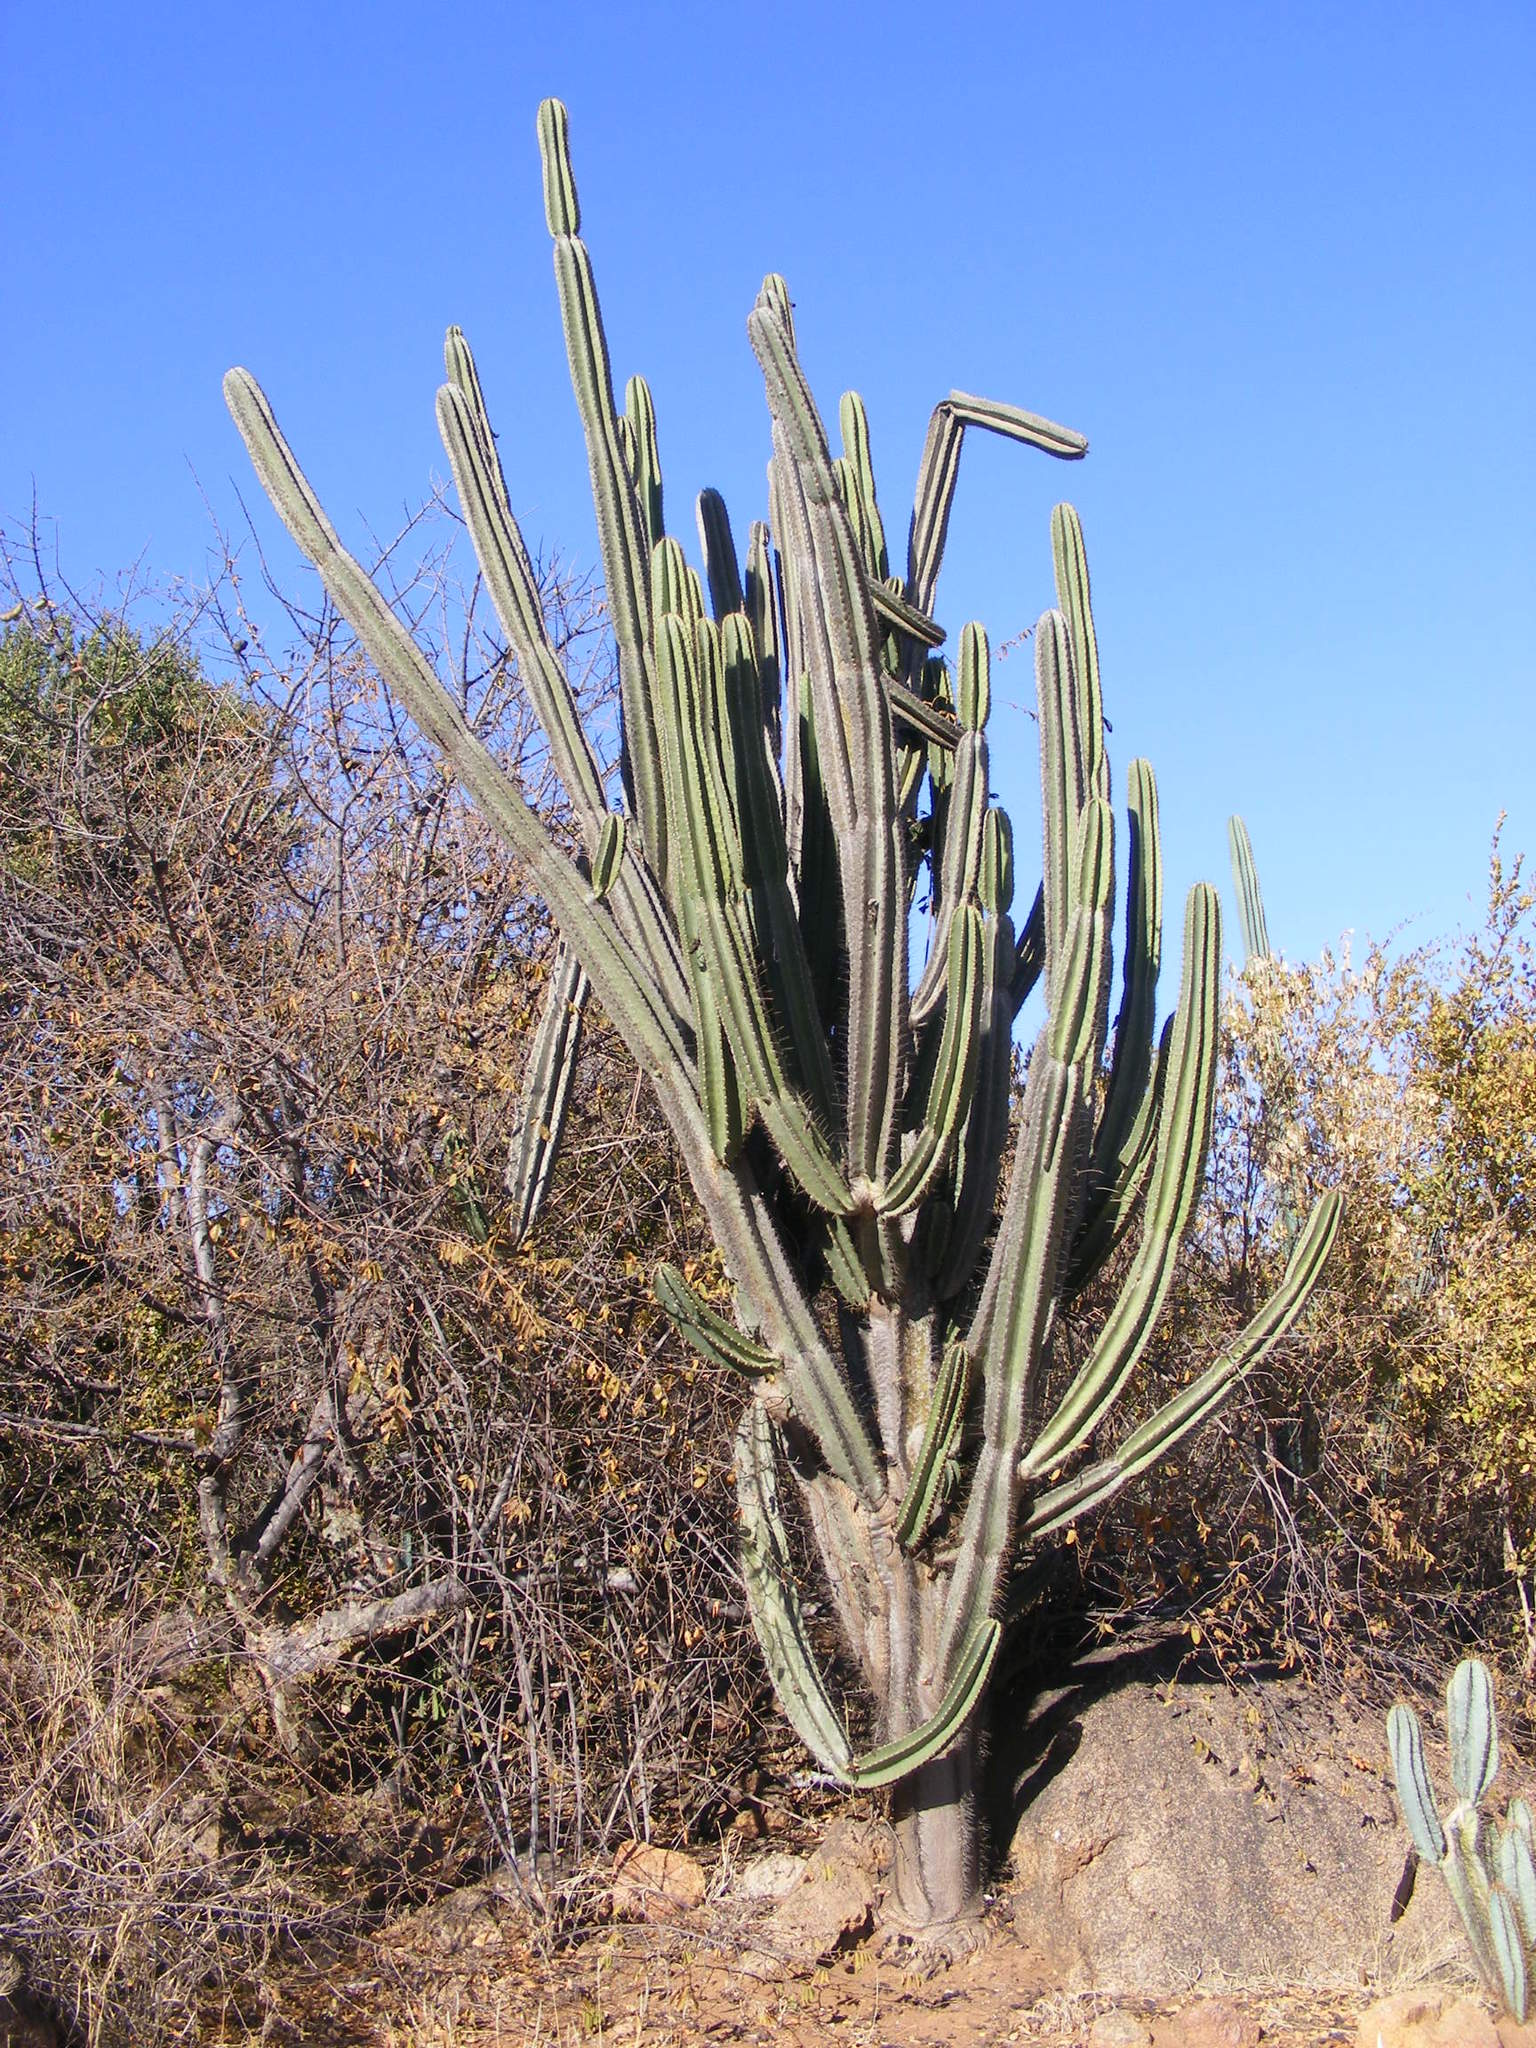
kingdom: Plantae
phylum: Tracheophyta
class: Magnoliopsida
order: Caryophyllales
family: Cactaceae
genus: Cereus
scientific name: Cereus jamacaru
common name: Queen-of-the-night
